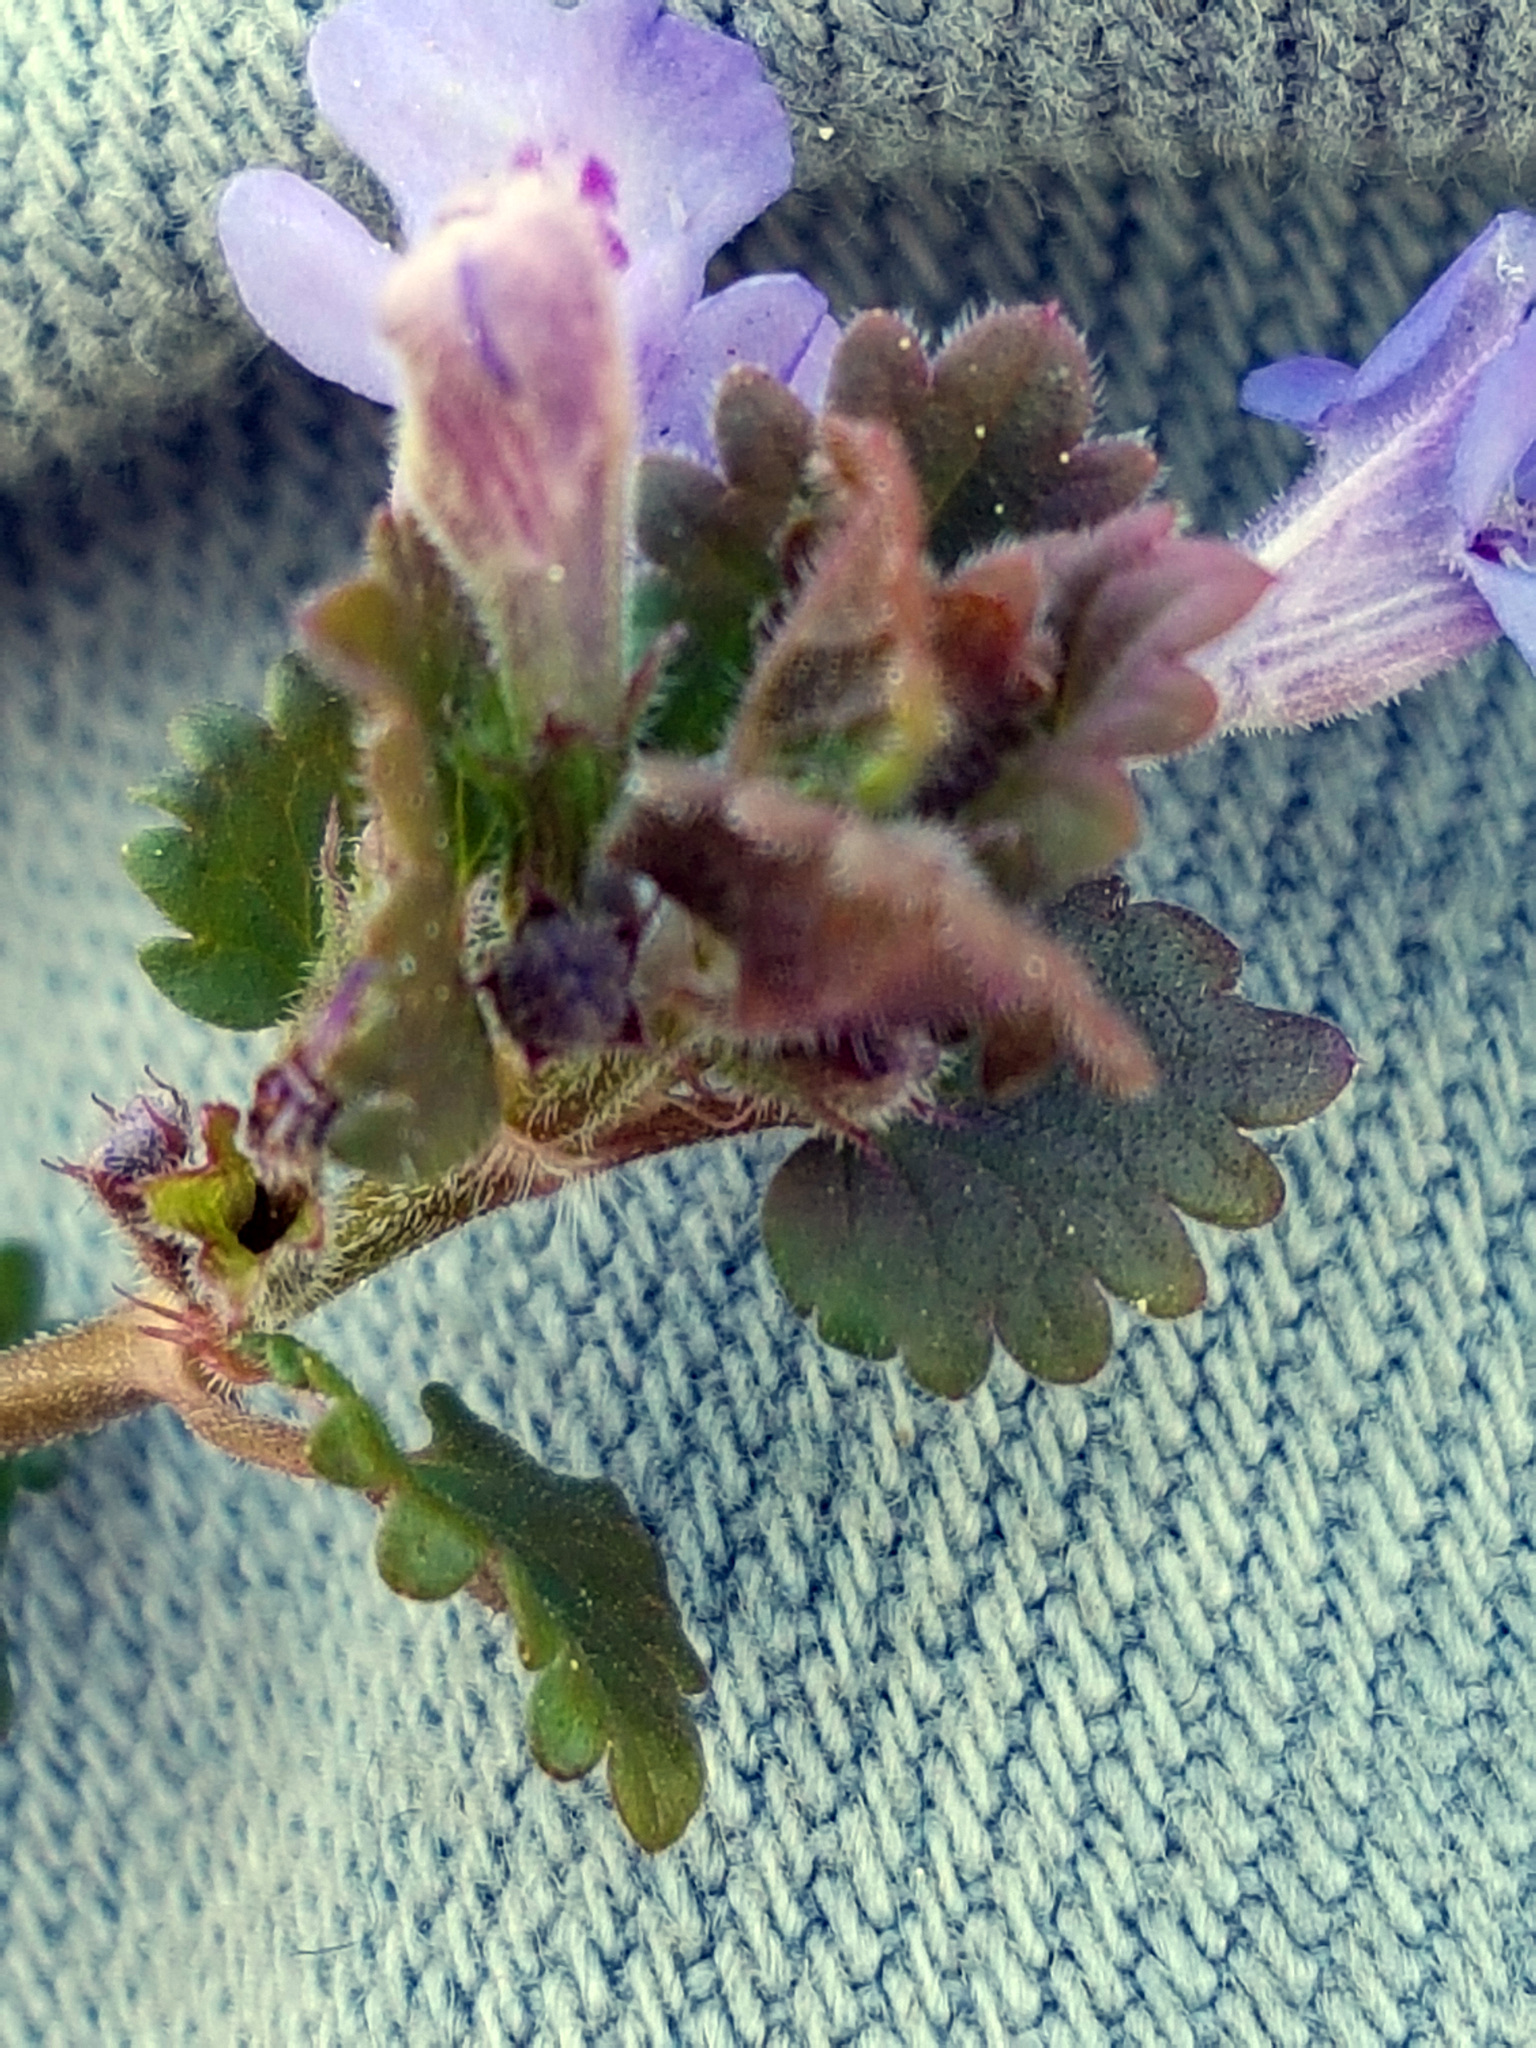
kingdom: Plantae
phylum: Tracheophyta
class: Magnoliopsida
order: Lamiales
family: Lamiaceae
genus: Glechoma
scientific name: Glechoma hederacea
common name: Ground ivy
